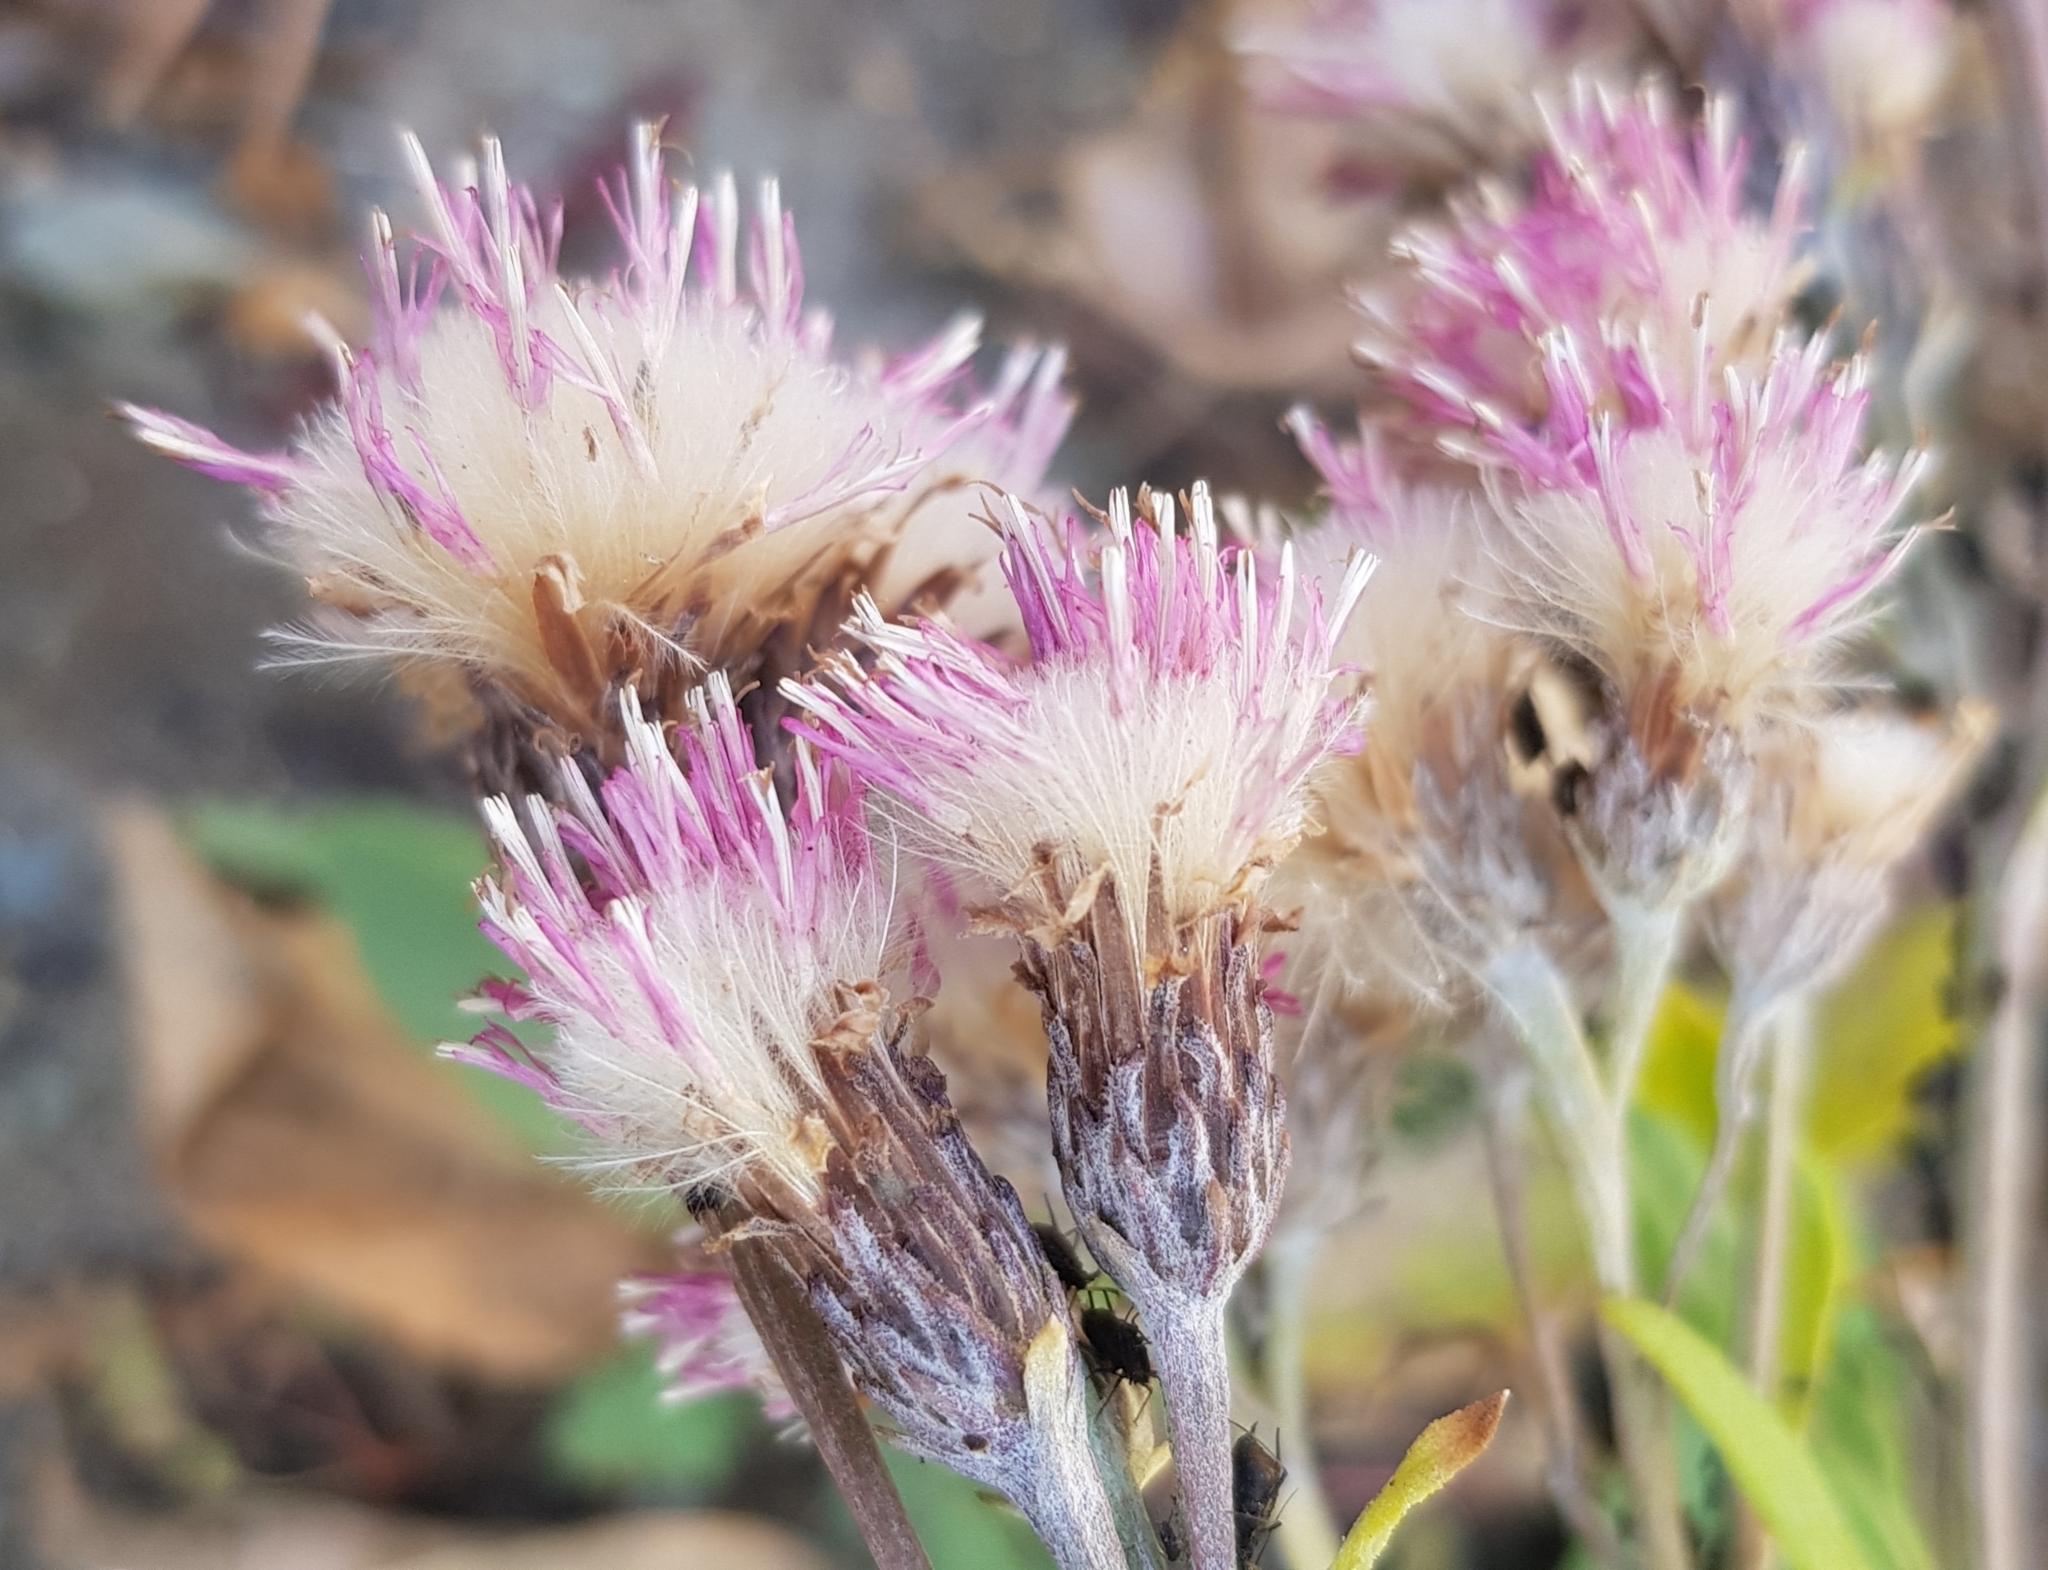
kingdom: Plantae
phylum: Tracheophyta
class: Magnoliopsida
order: Asterales
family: Asteraceae
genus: Saussurea
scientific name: Saussurea amara
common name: Alberta sawwort
